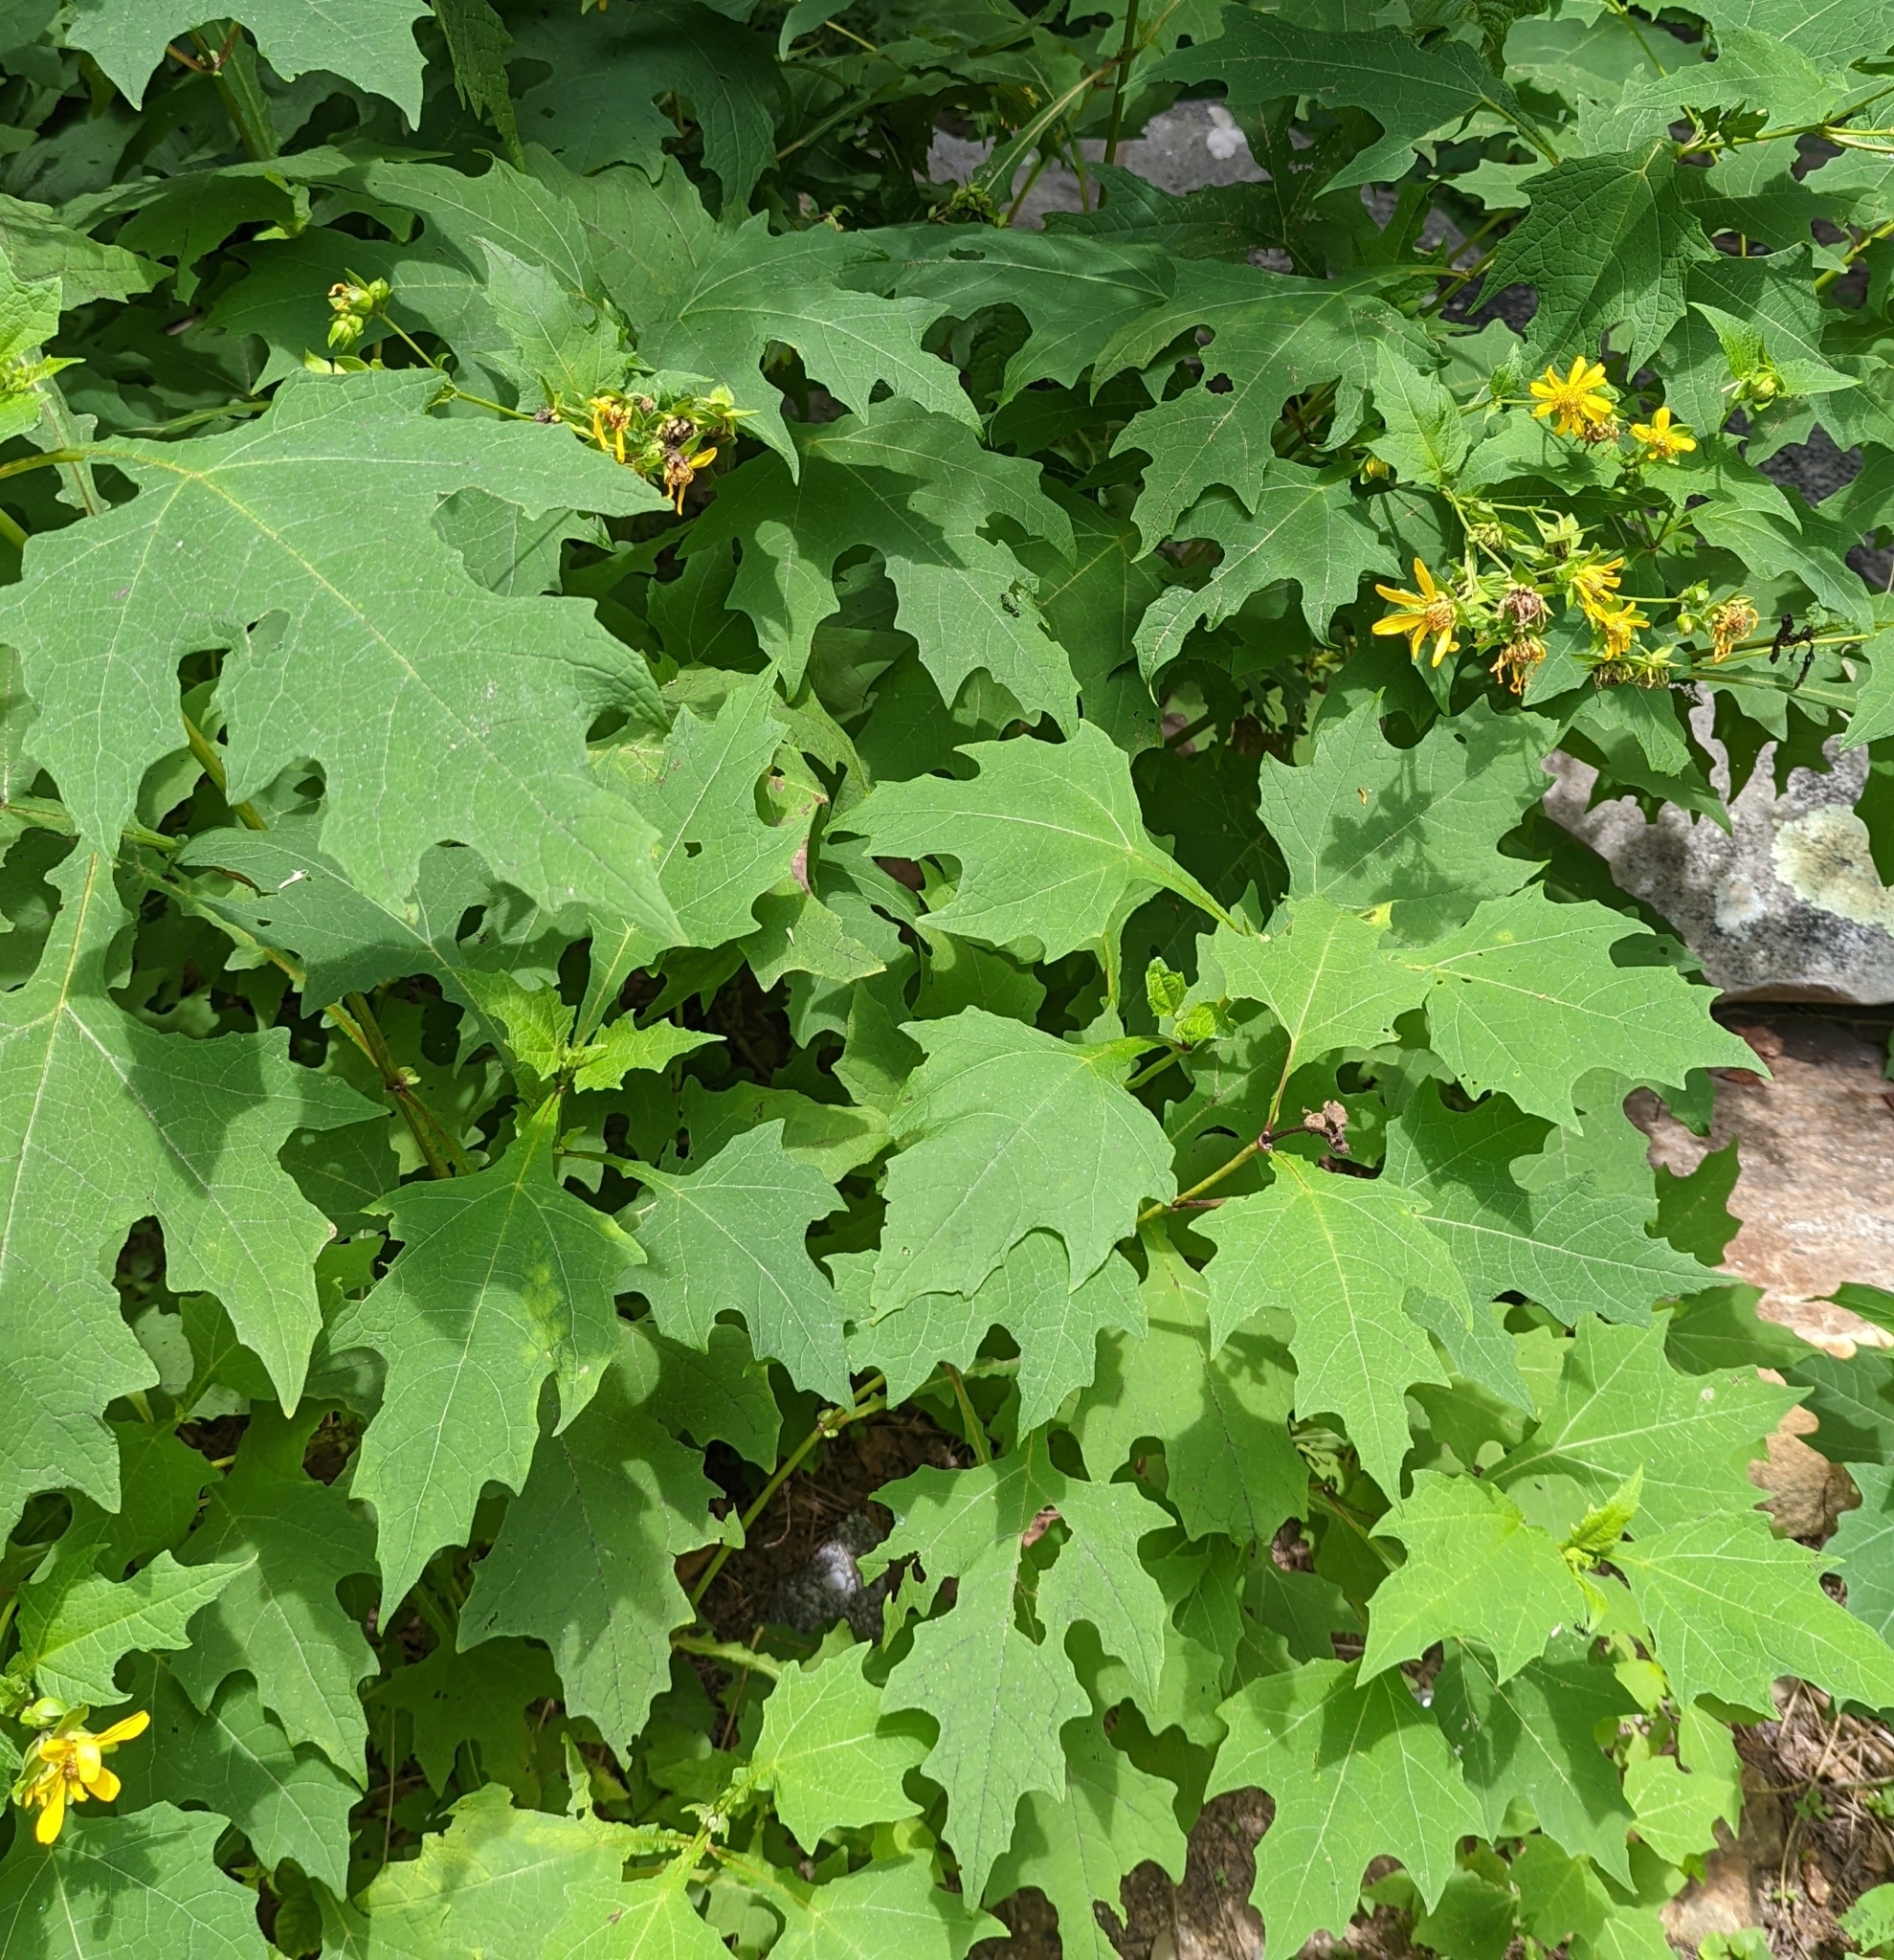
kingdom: Plantae
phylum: Tracheophyta
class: Magnoliopsida
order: Asterales
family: Asteraceae
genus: Smallanthus
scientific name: Smallanthus uvedalia
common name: Bear's-foot
